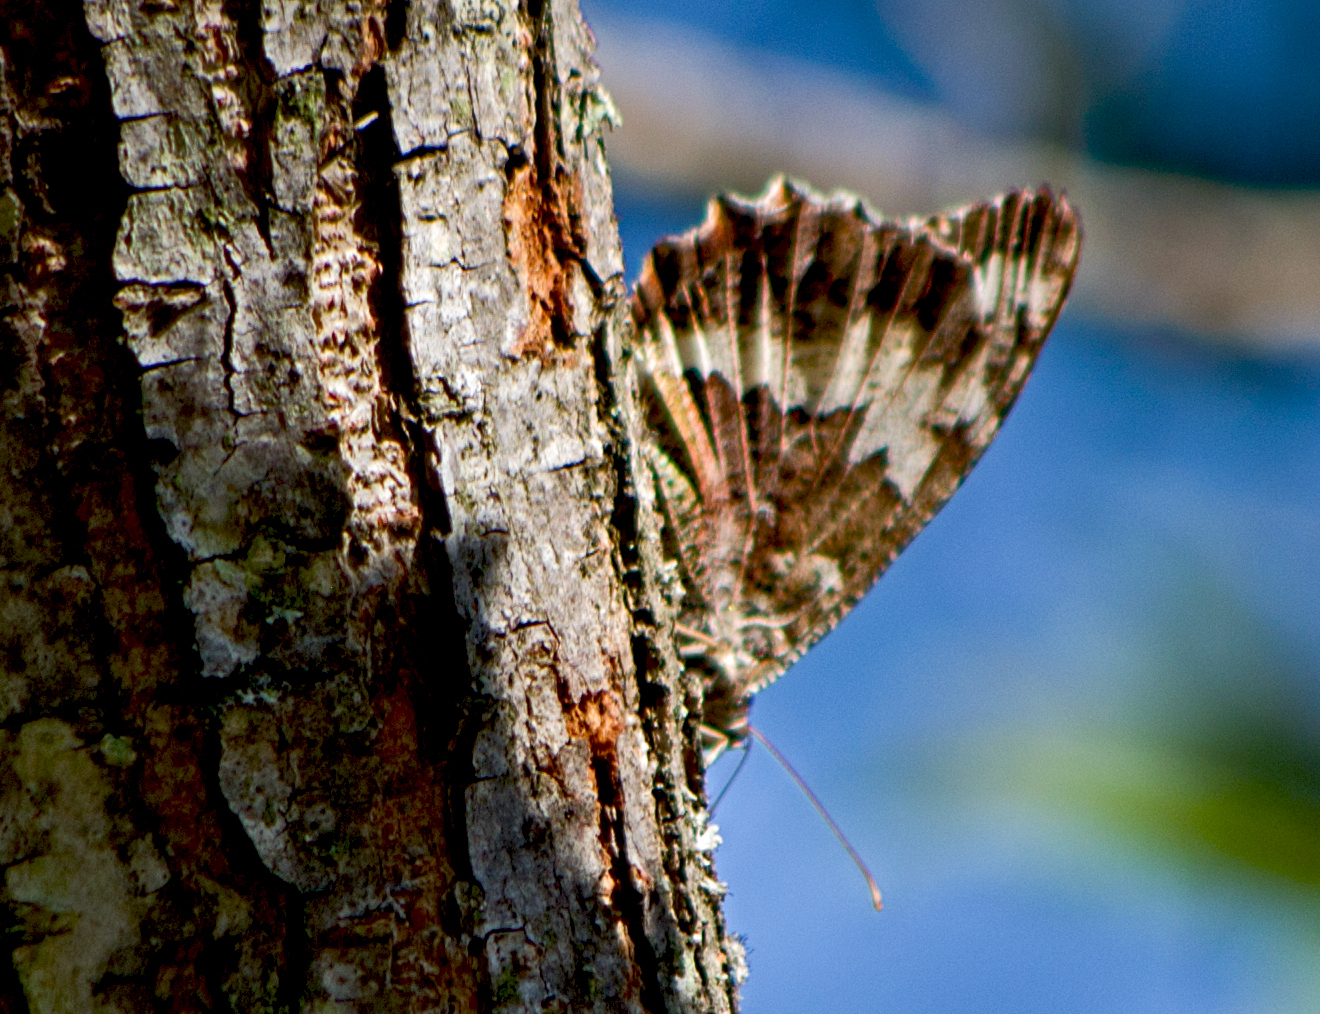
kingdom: Animalia
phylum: Arthropoda
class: Insecta
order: Lepidoptera
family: Lycaenidae
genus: Loweia
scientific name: Loweia tityrus
